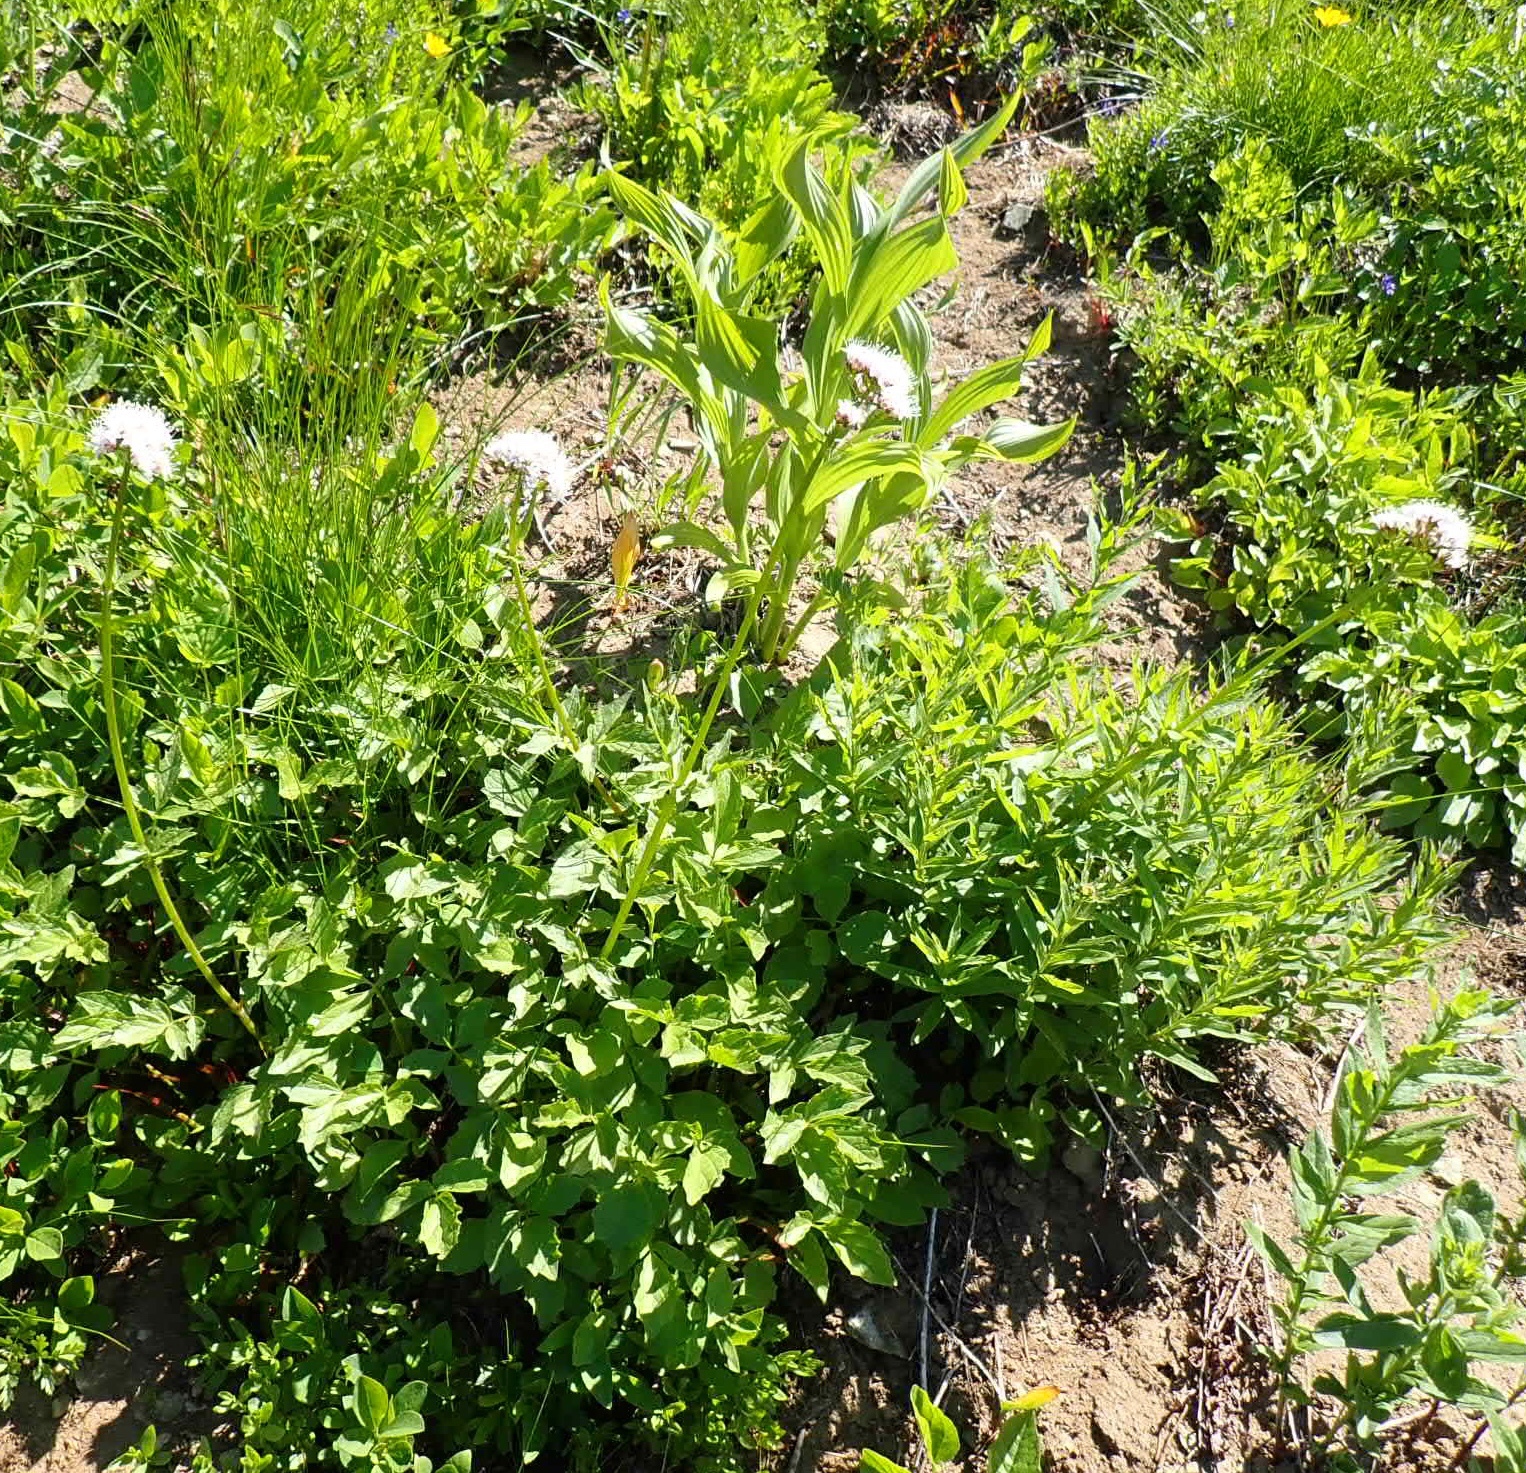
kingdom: Plantae
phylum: Tracheophyta
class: Magnoliopsida
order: Dipsacales
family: Caprifoliaceae
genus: Valeriana
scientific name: Valeriana sitchensis
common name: Pacific valerian
